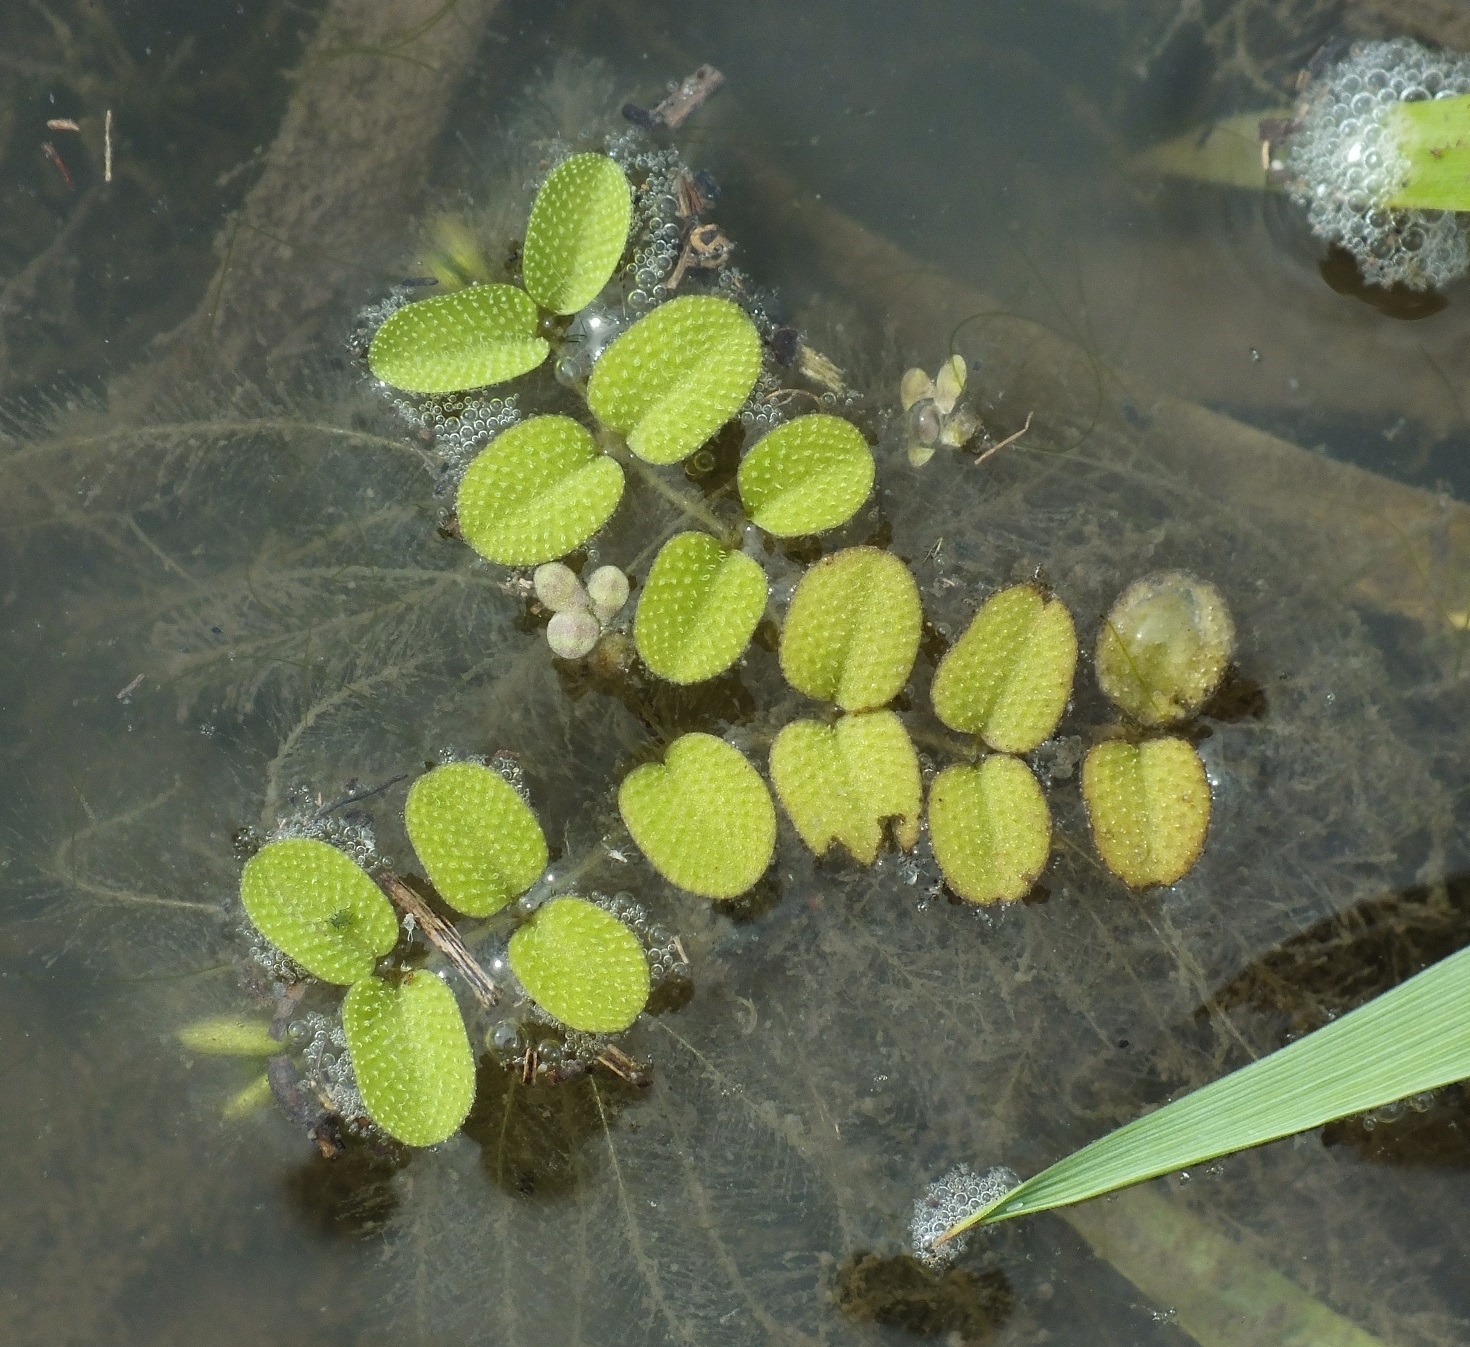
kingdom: Plantae
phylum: Tracheophyta
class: Polypodiopsida
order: Salviniales
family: Salviniaceae
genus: Salvinia
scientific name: Salvinia natans
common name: Floating fern
